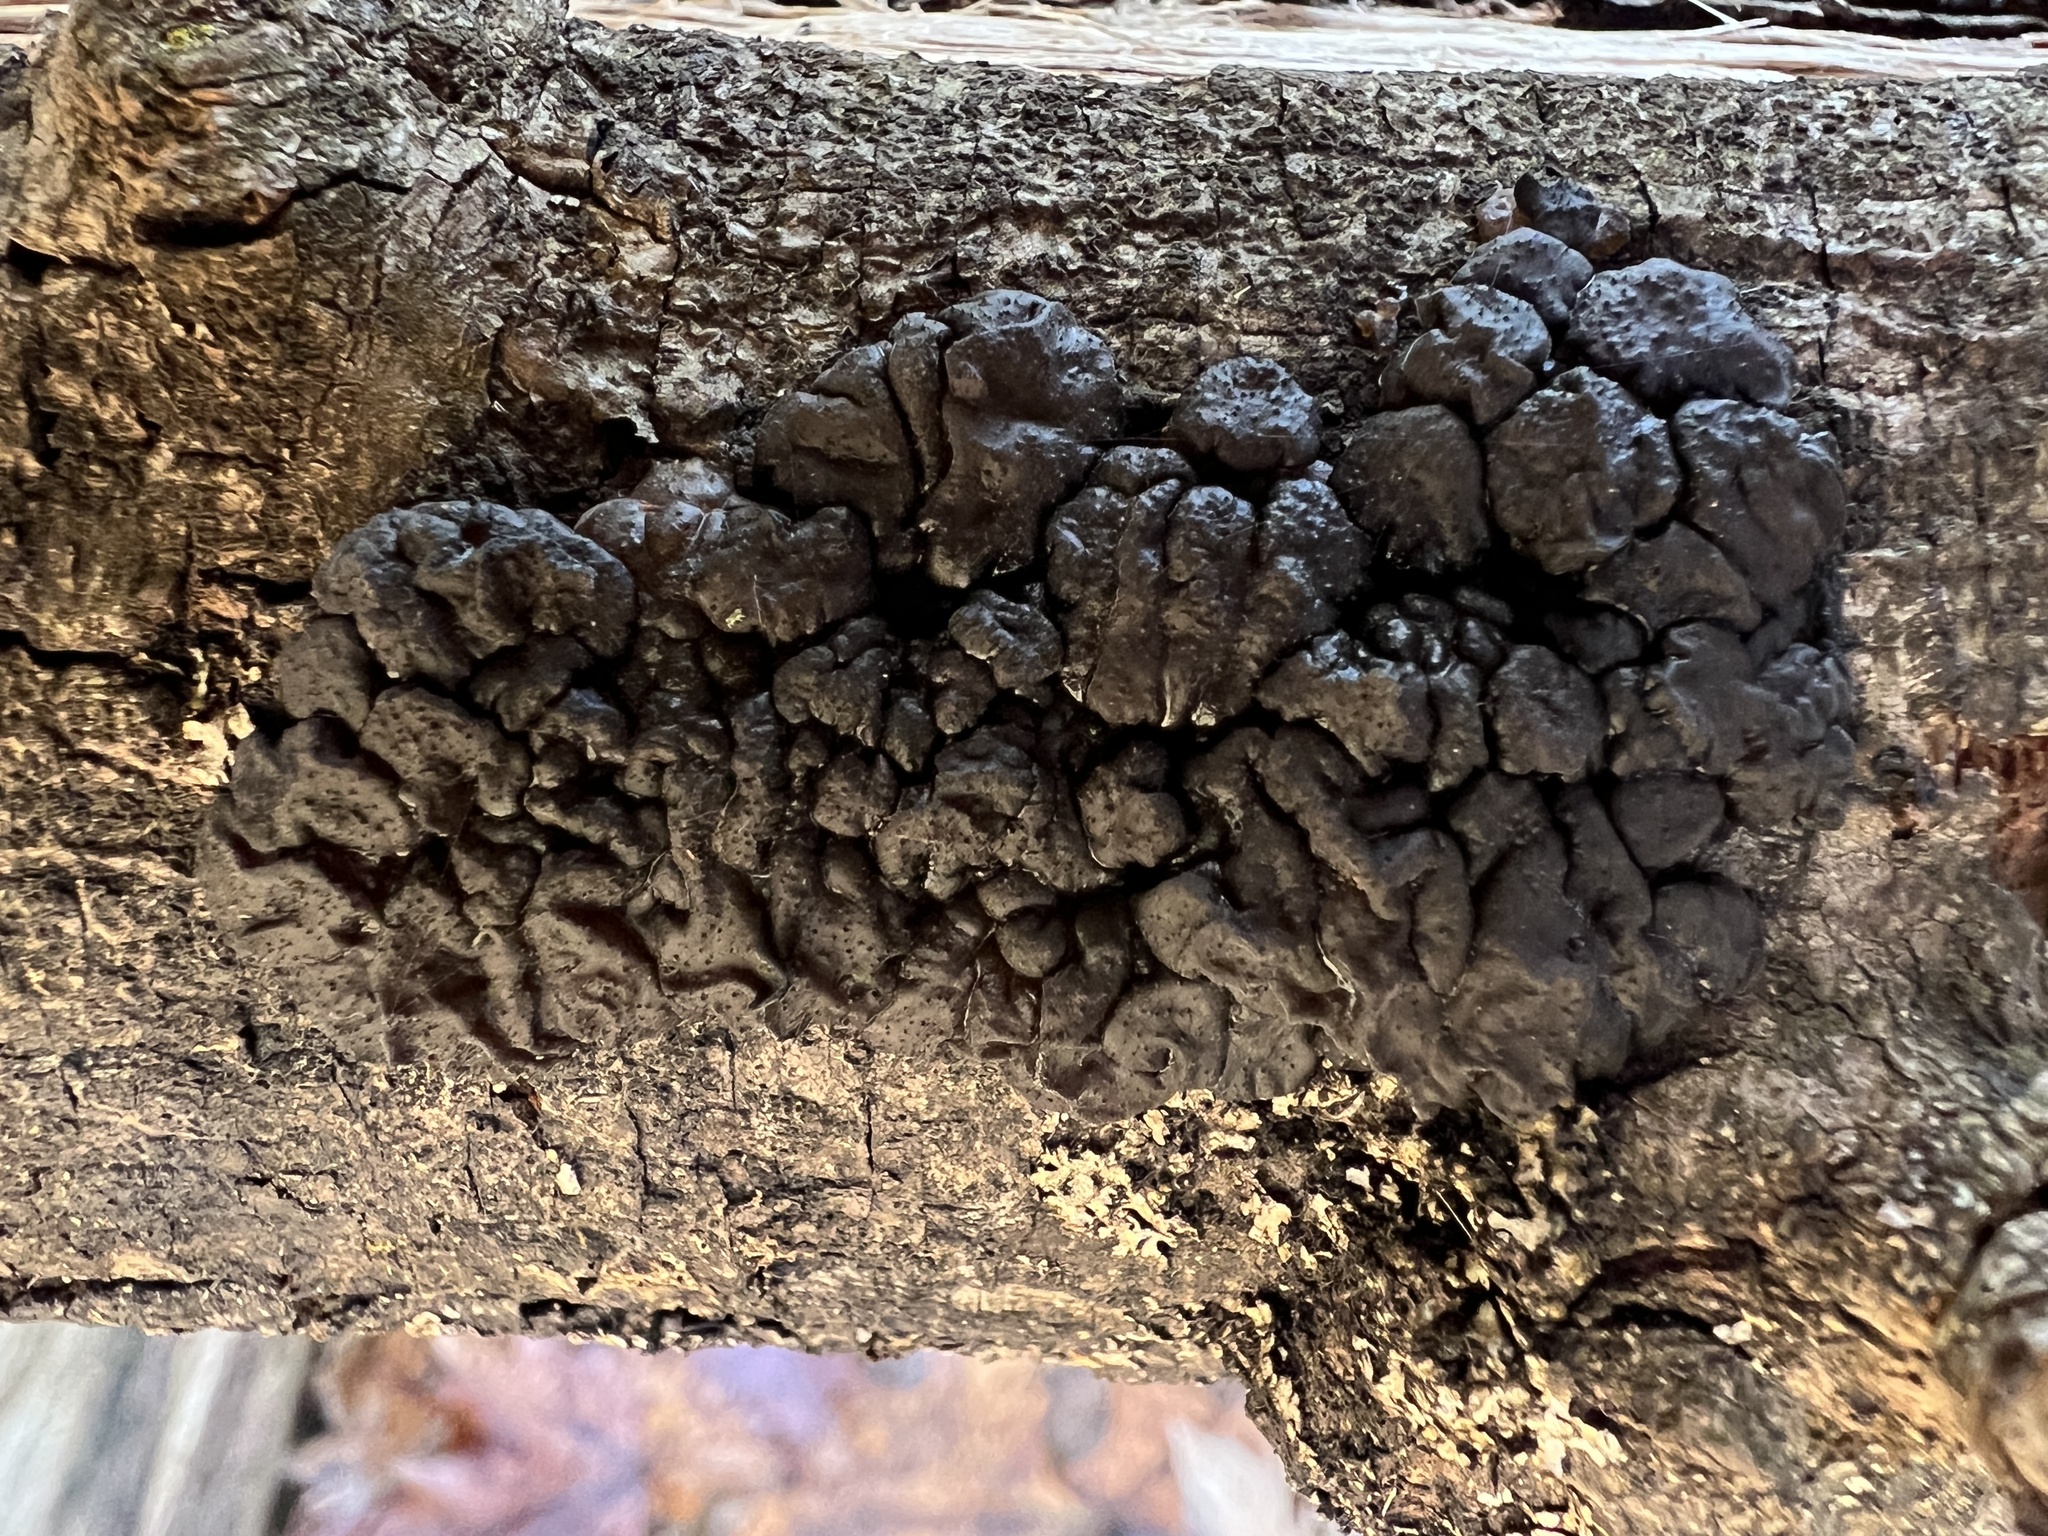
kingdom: Fungi
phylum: Basidiomycota
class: Agaricomycetes
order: Auriculariales
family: Auriculariaceae
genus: Exidia
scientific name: Exidia glandulosa
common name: Witches' butter
